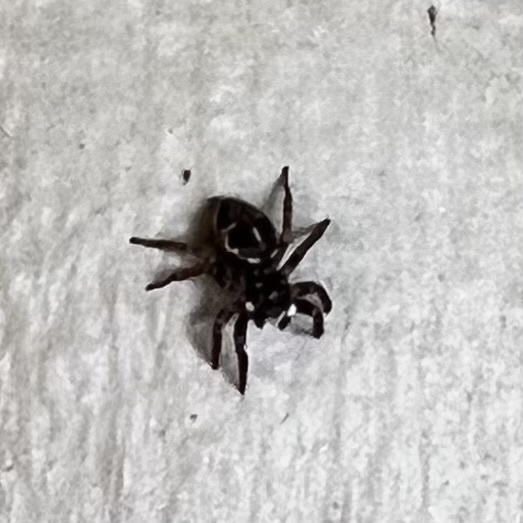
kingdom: Animalia
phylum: Arthropoda
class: Arachnida
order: Araneae
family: Salticidae
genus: Anasaitis
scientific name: Anasaitis canosa
